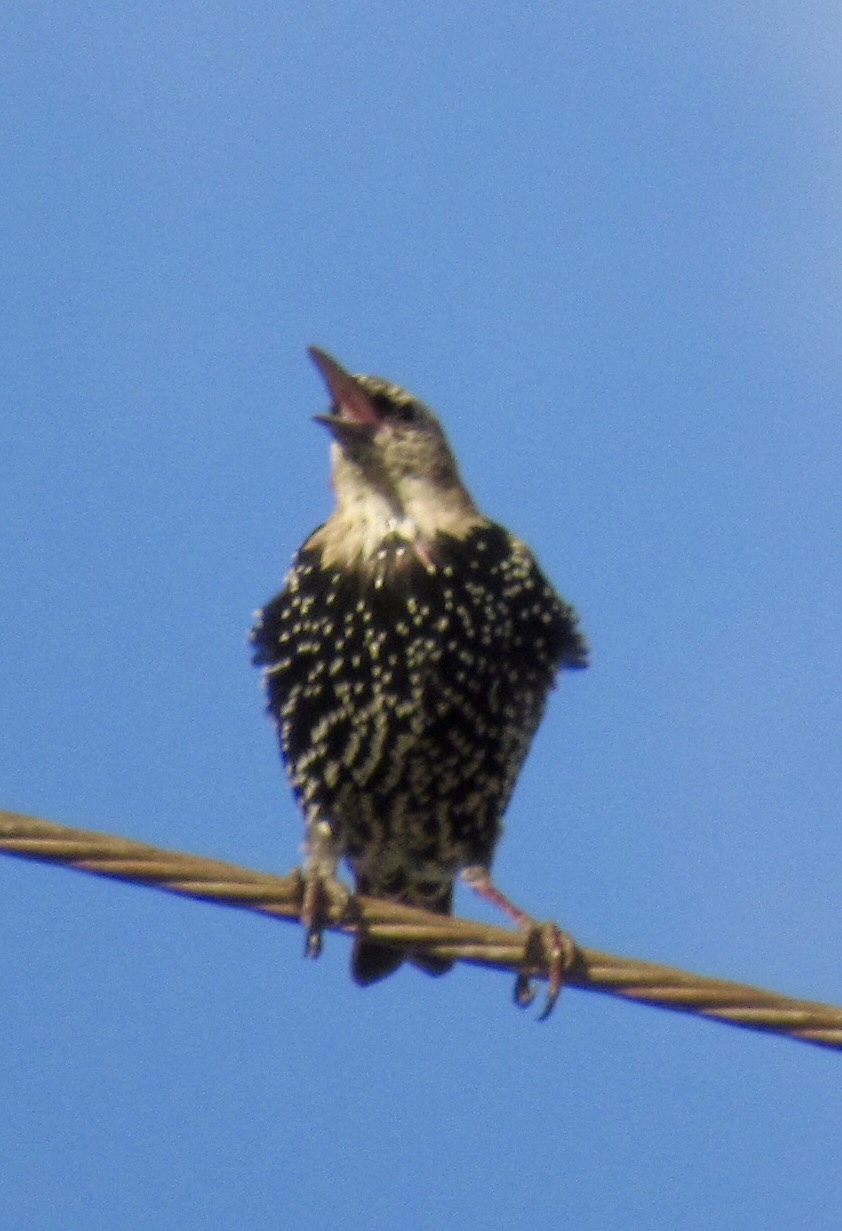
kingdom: Animalia
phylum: Chordata
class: Aves
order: Passeriformes
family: Sturnidae
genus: Sturnus
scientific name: Sturnus vulgaris
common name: Common starling
